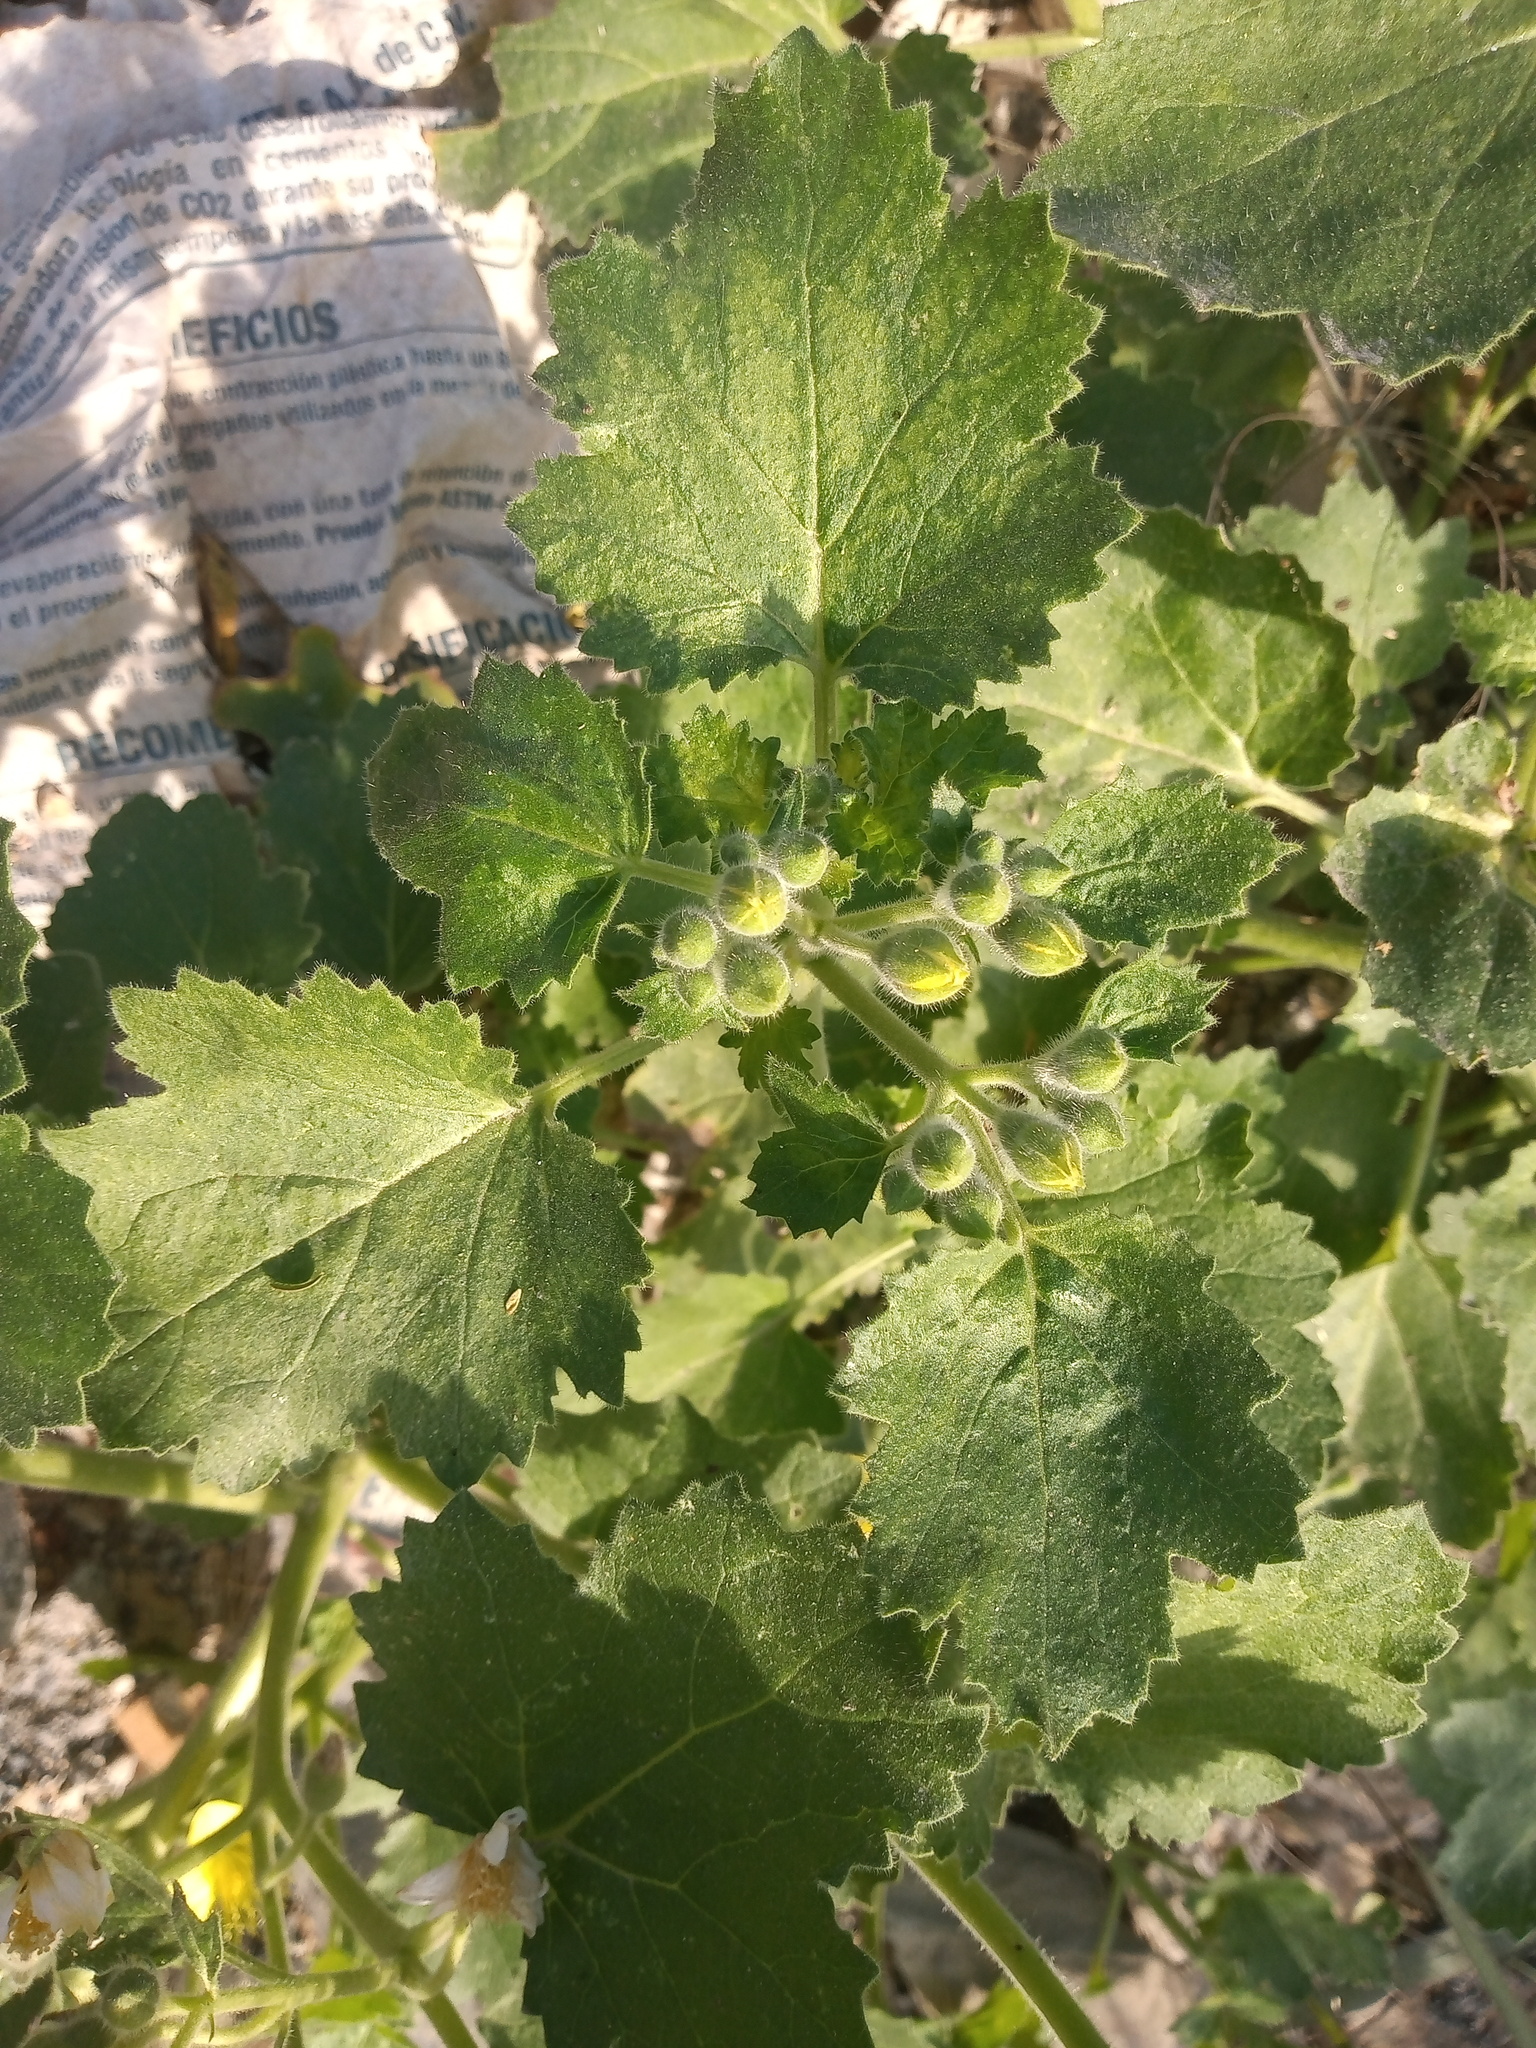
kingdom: Plantae
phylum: Tracheophyta
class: Magnoliopsida
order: Cornales
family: Loasaceae
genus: Eucnide
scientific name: Eucnide lobata
